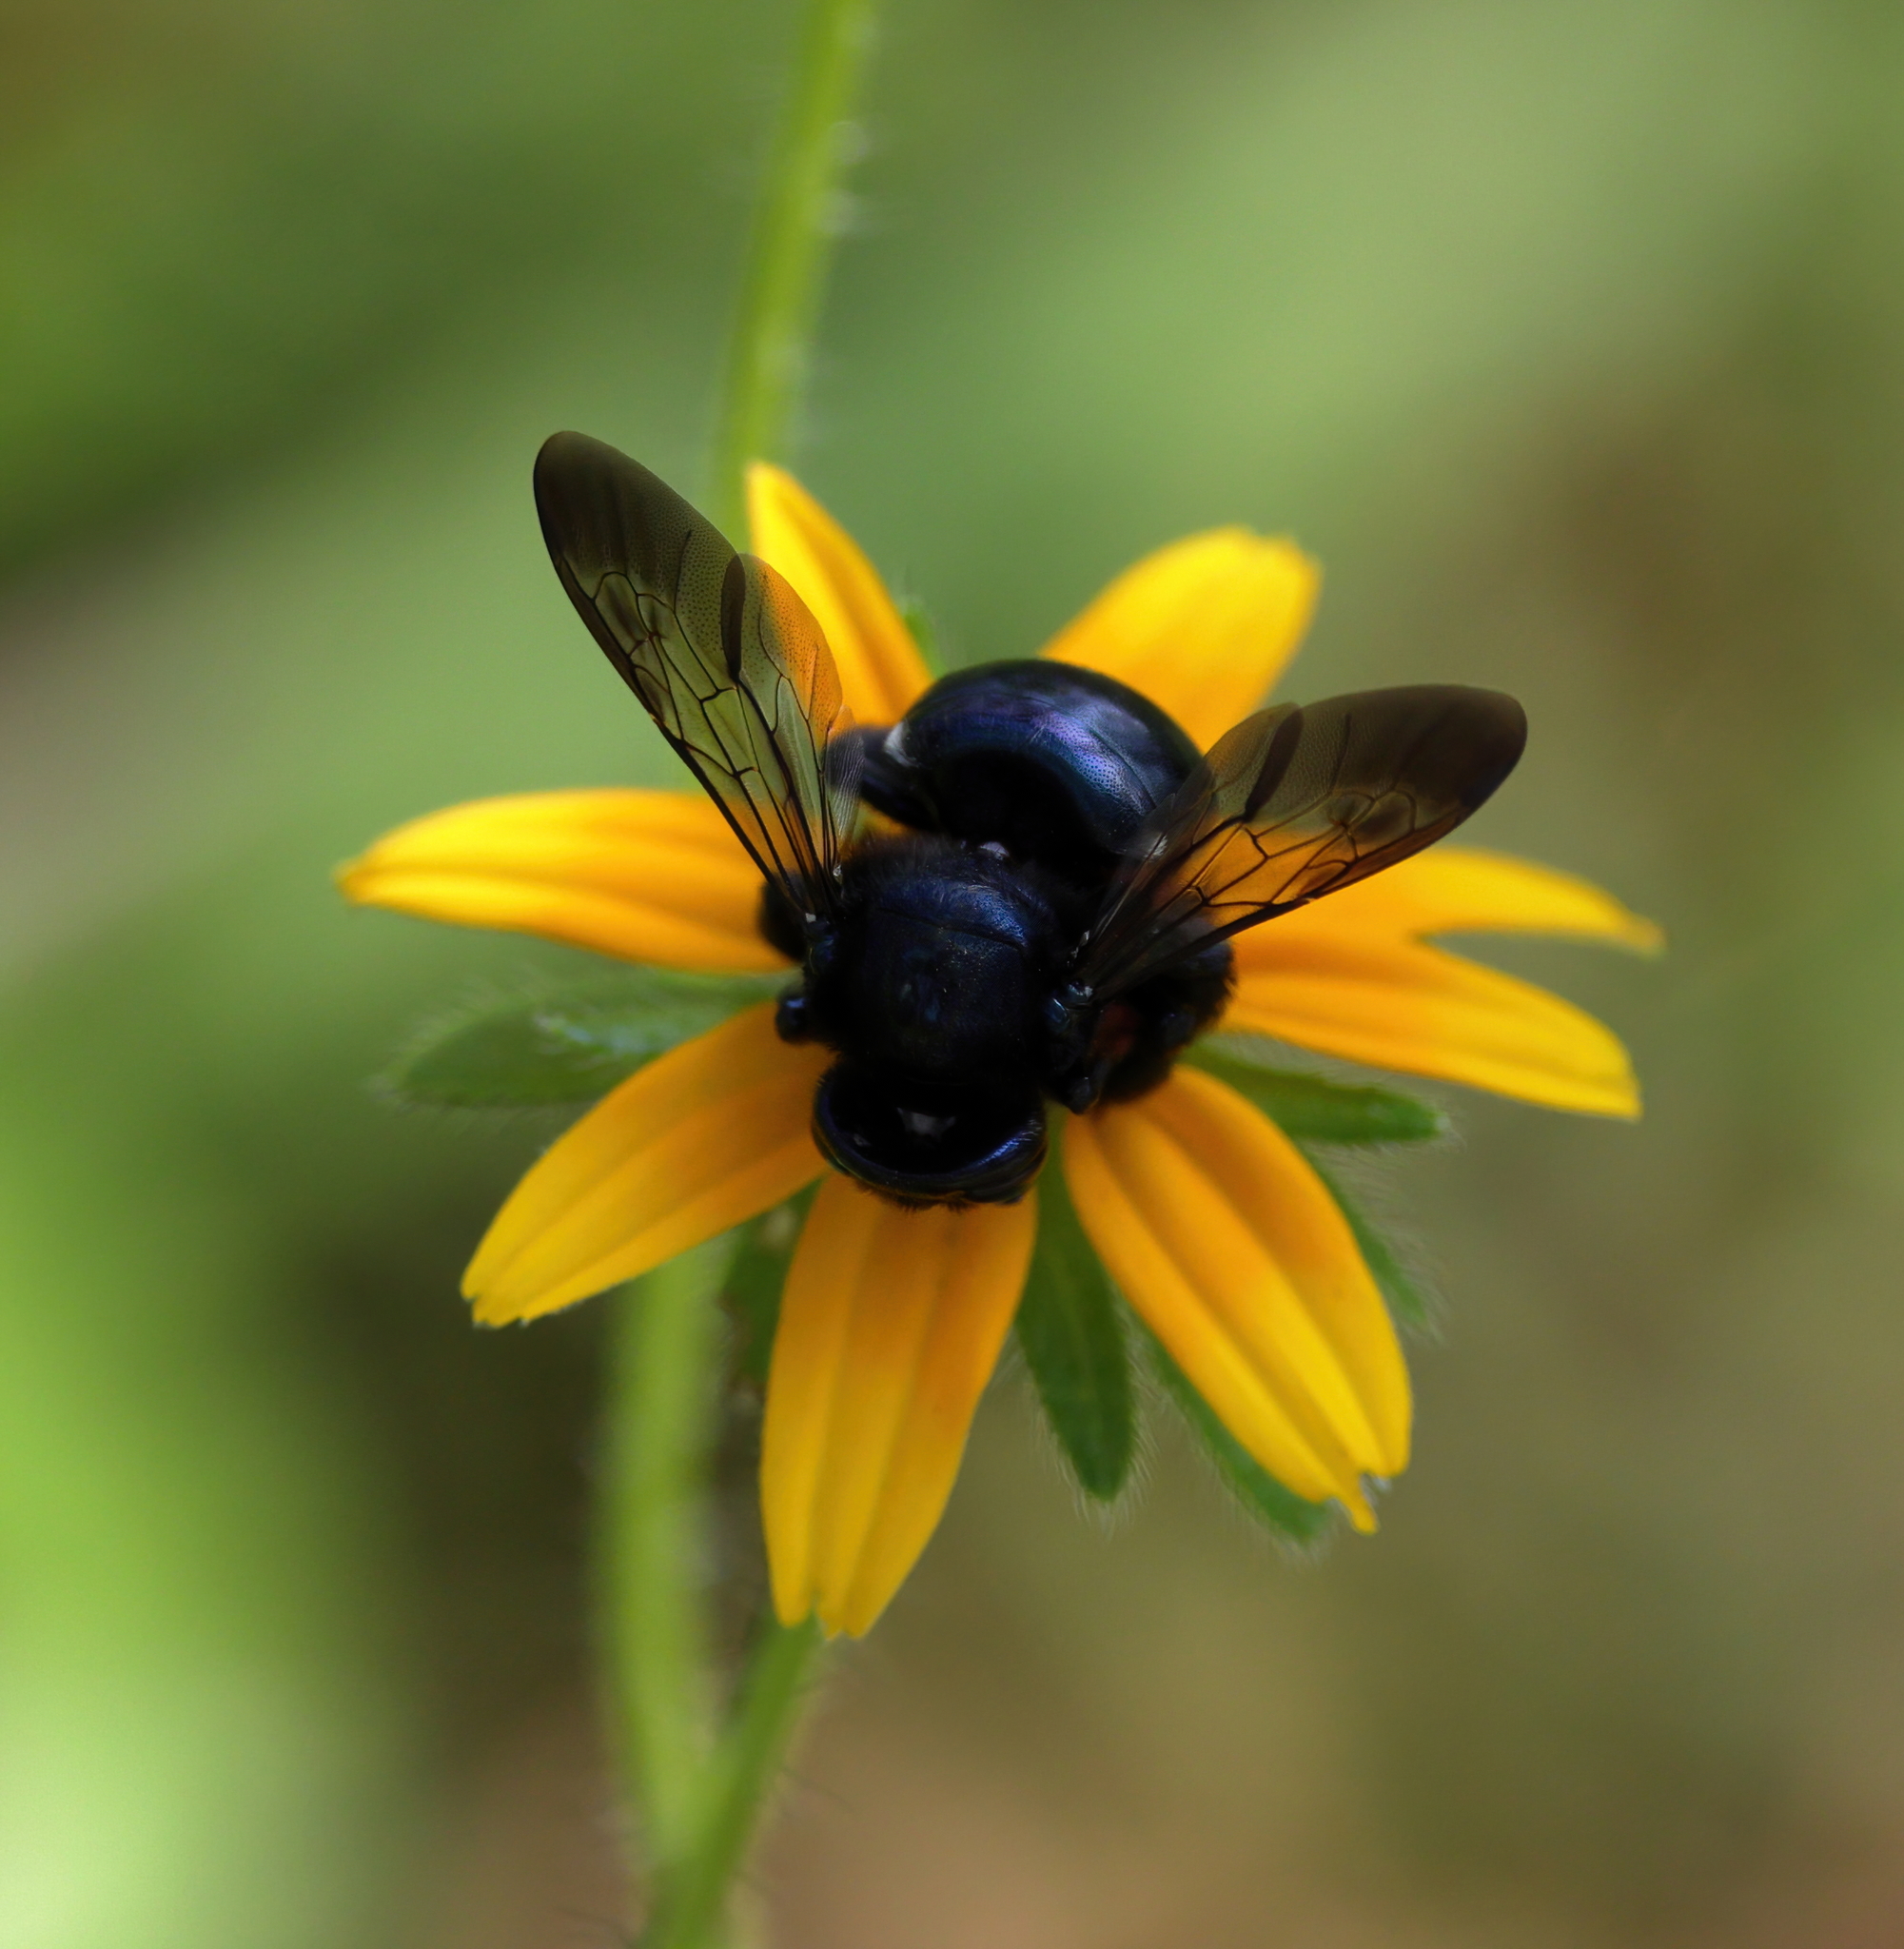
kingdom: Animalia
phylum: Arthropoda
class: Insecta
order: Hymenoptera
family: Apidae
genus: Xylocopa
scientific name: Xylocopa micans
